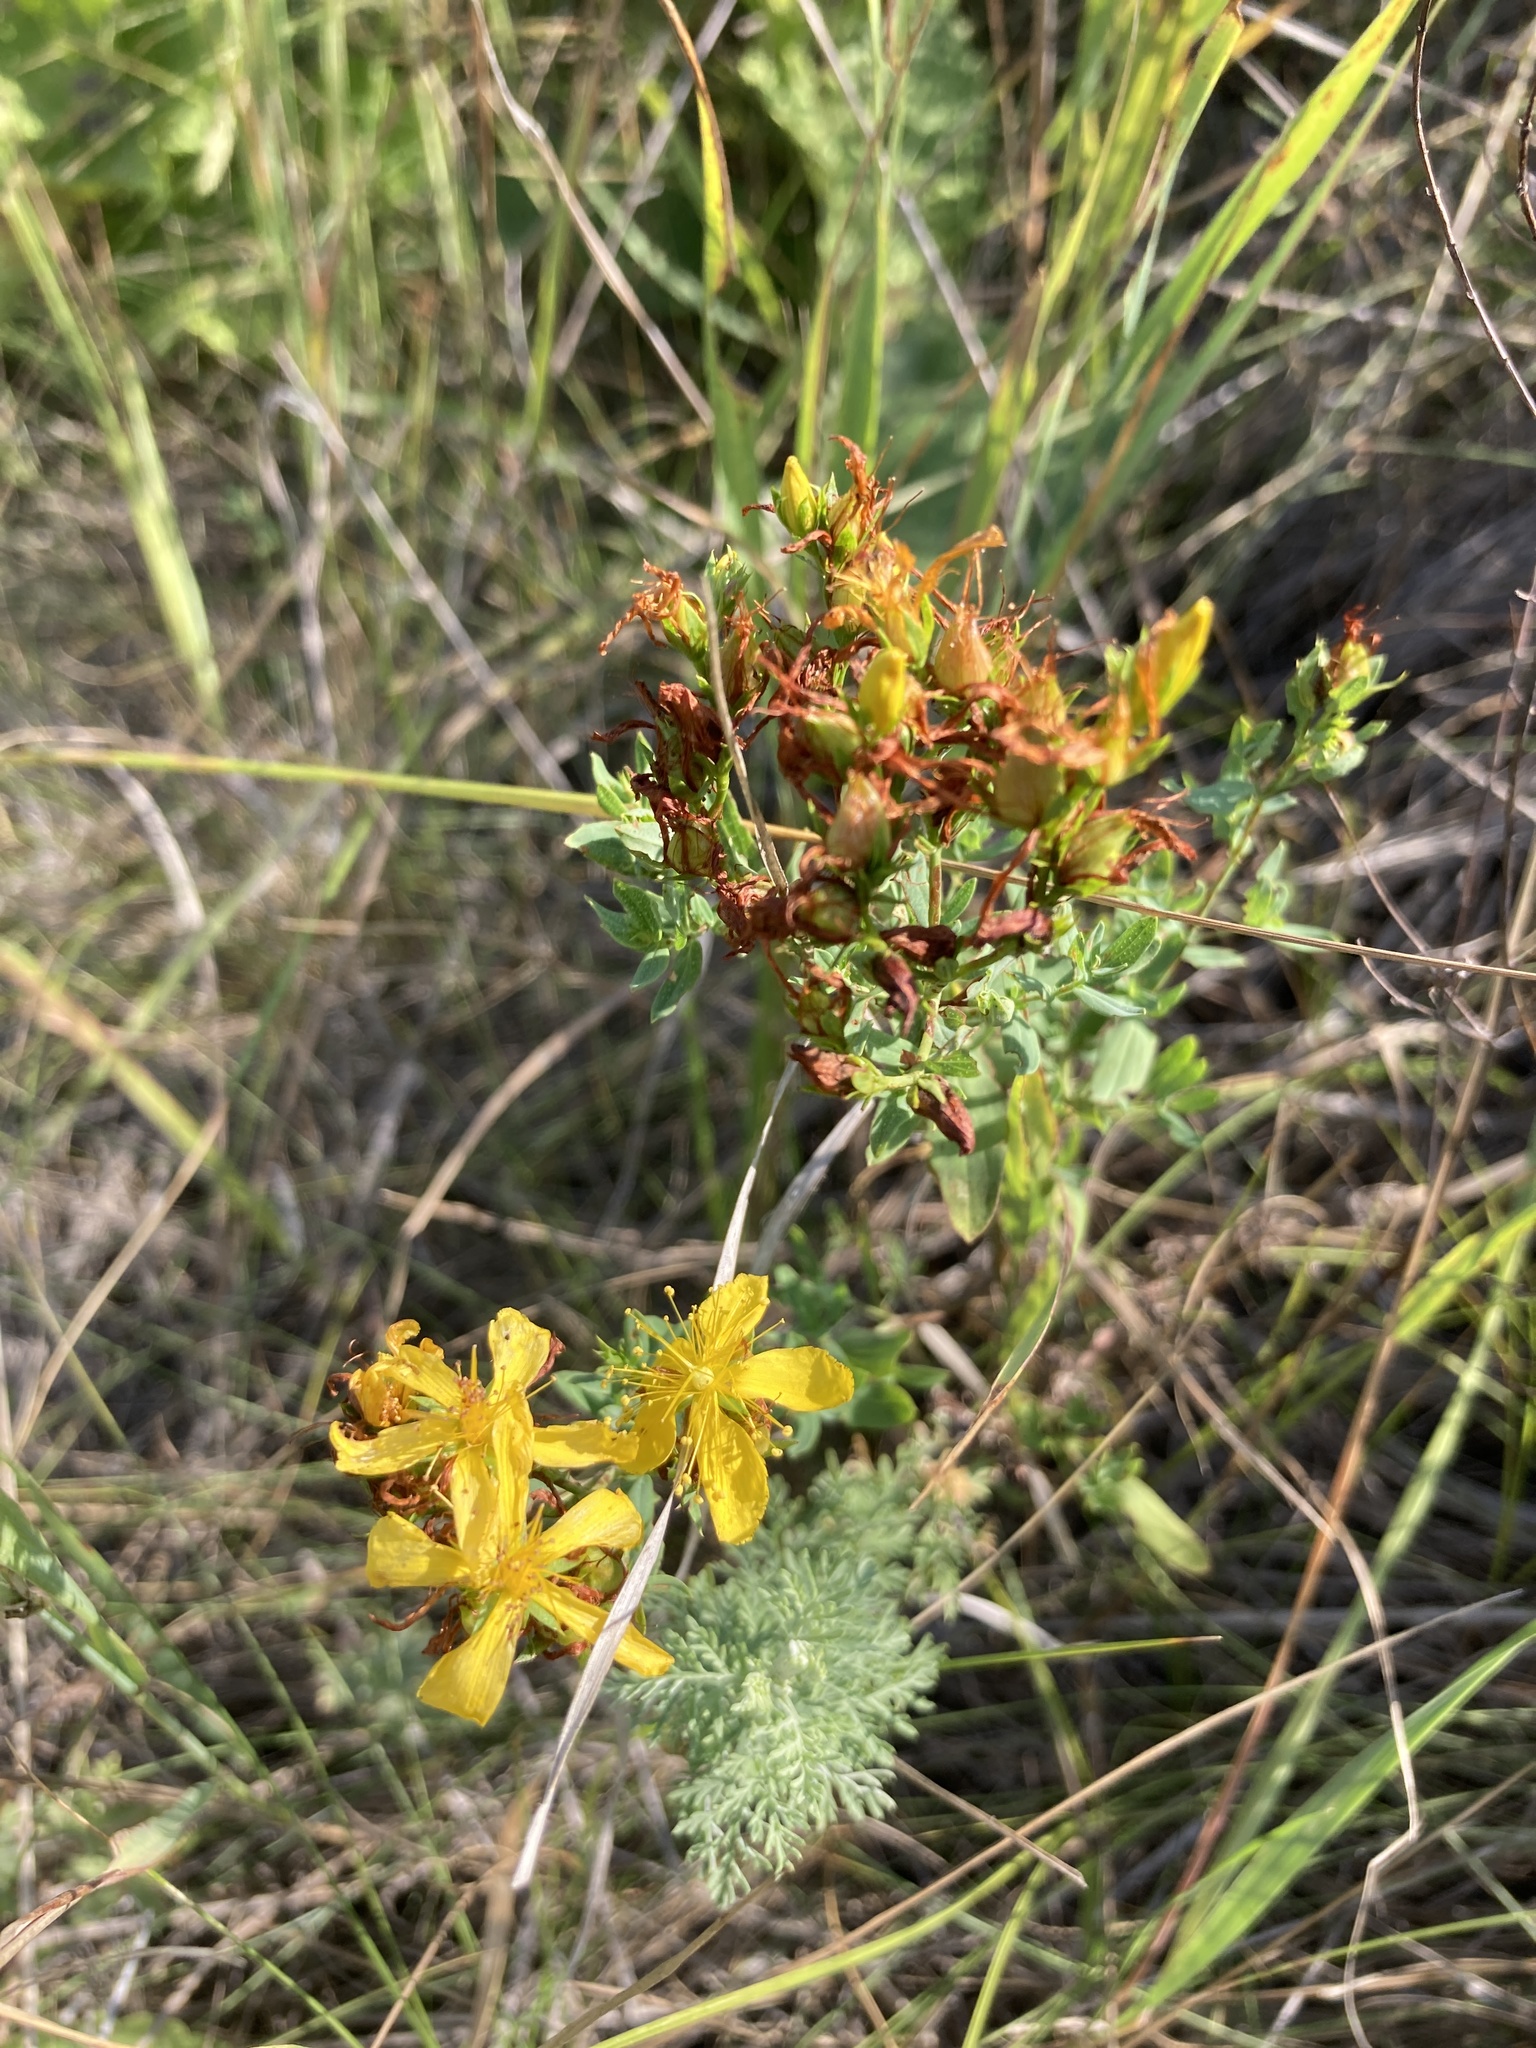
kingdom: Plantae
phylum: Tracheophyta
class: Magnoliopsida
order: Malpighiales
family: Hypericaceae
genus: Hypericum
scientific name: Hypericum perforatum
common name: Common st. johnswort
